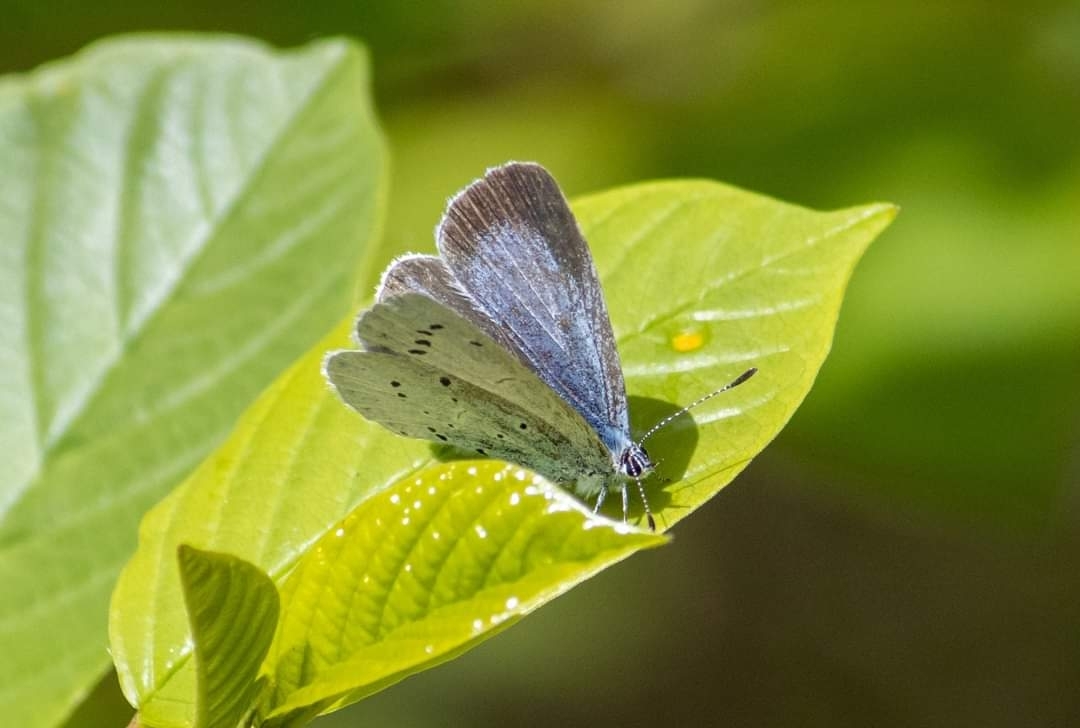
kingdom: Animalia
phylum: Arthropoda
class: Insecta
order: Lepidoptera
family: Lycaenidae
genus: Celastrina
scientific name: Celastrina argiolus
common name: Holly blue
